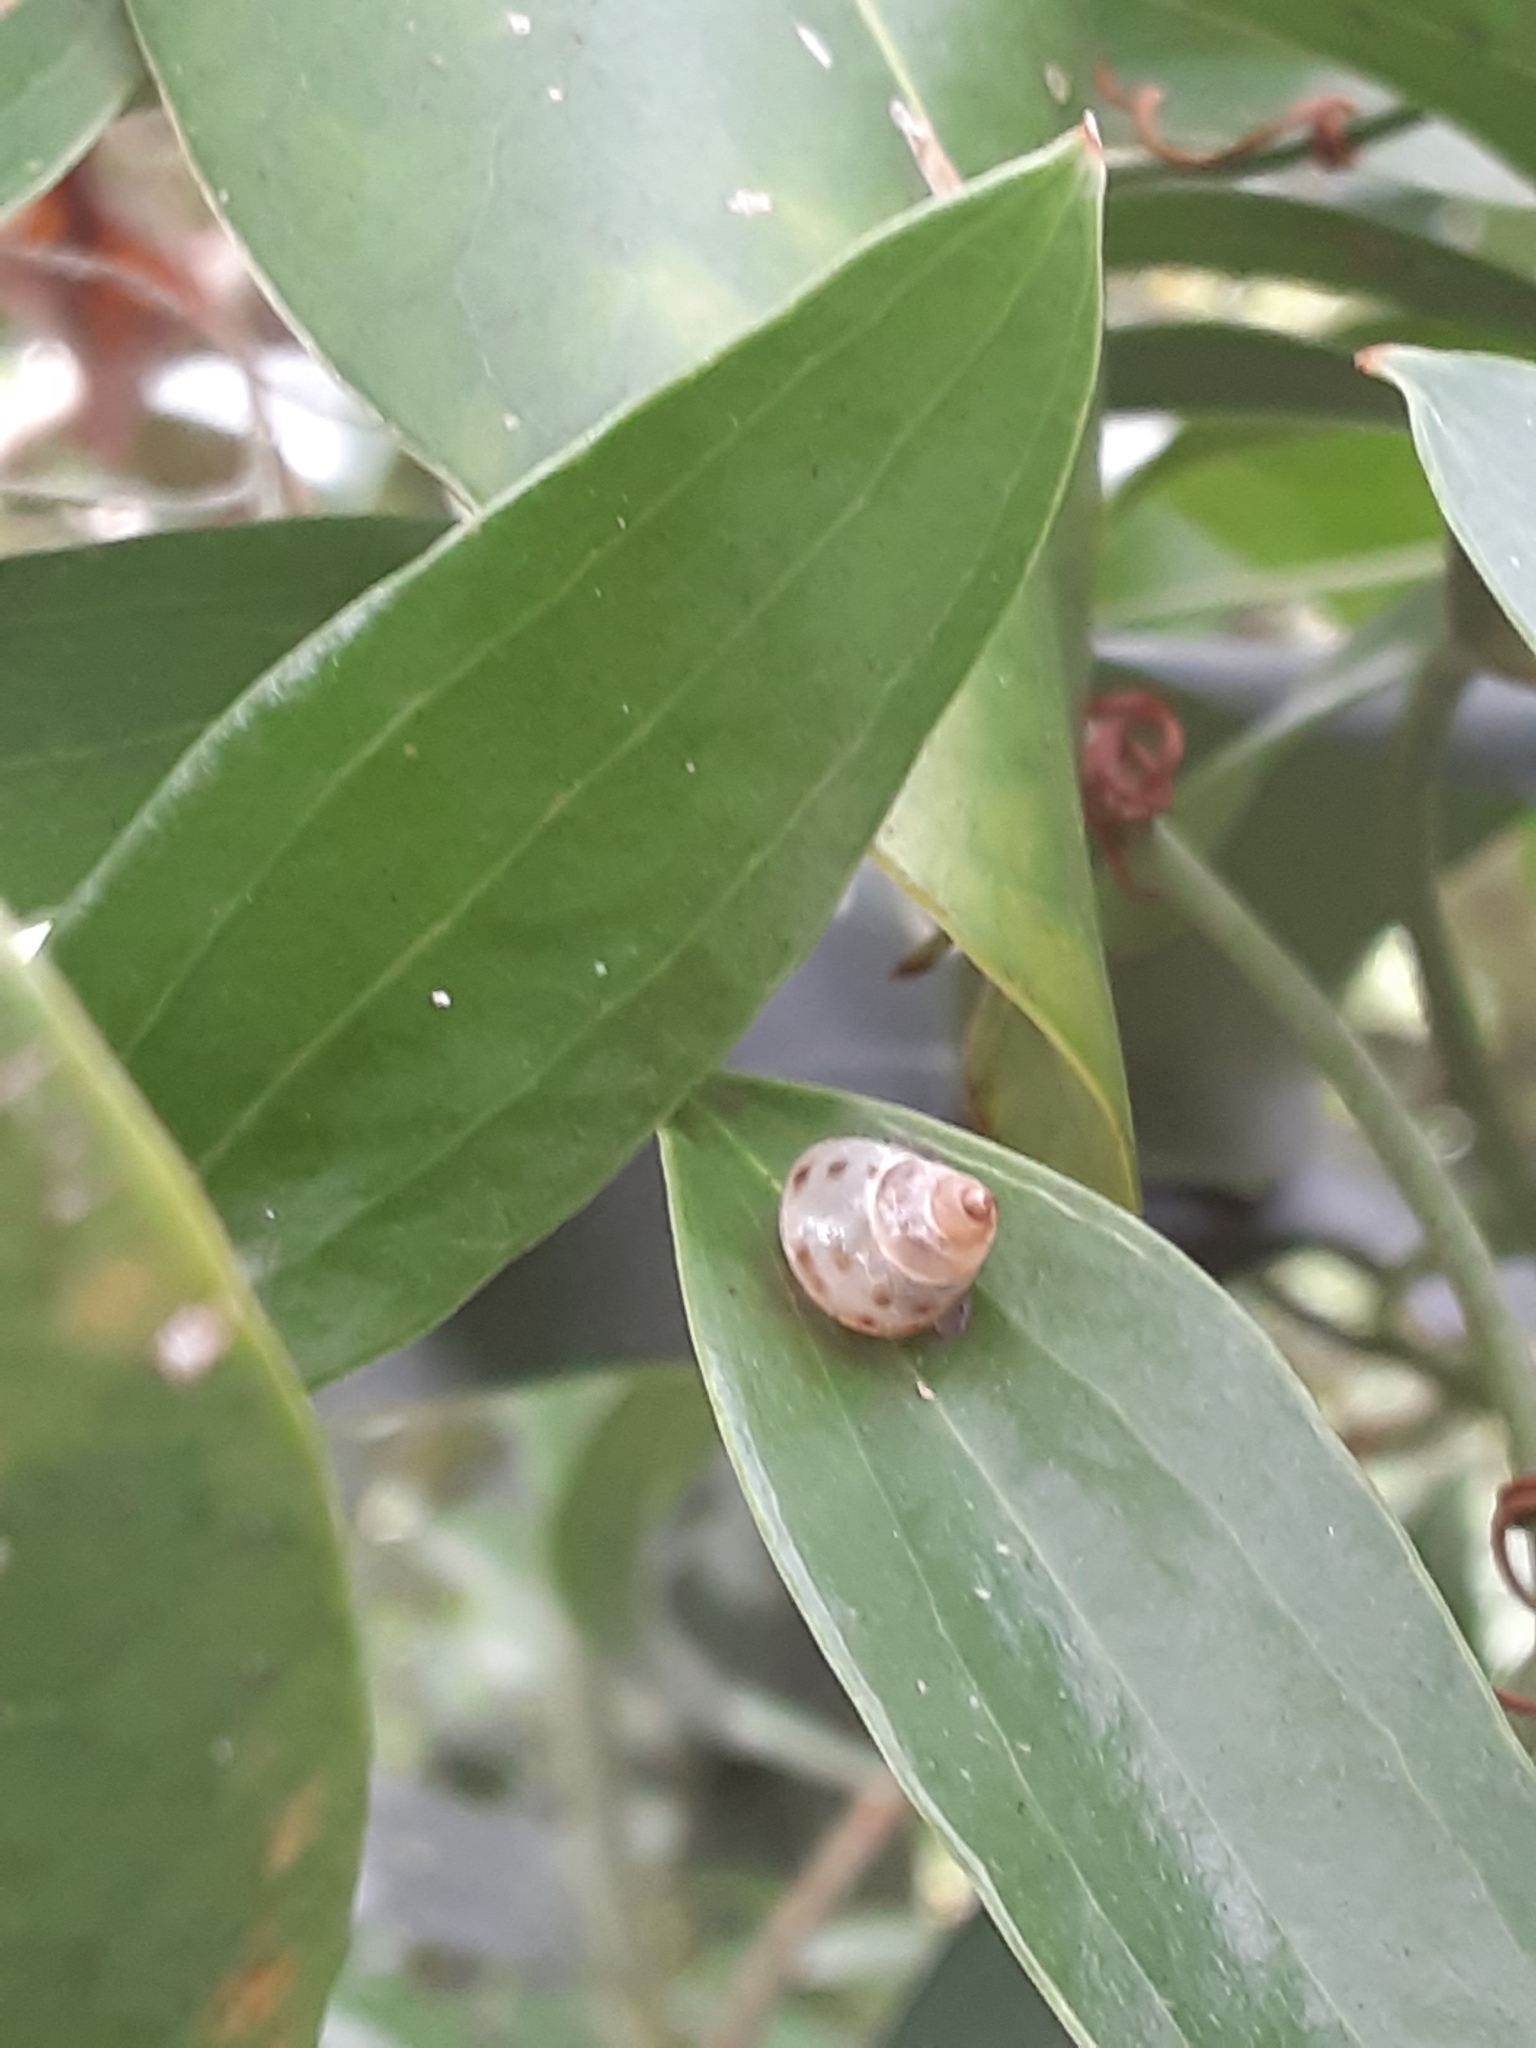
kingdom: Animalia
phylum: Mollusca
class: Gastropoda
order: Stylommatophora
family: Bulimulidae
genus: Drymaeus
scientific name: Drymaeus dormani
